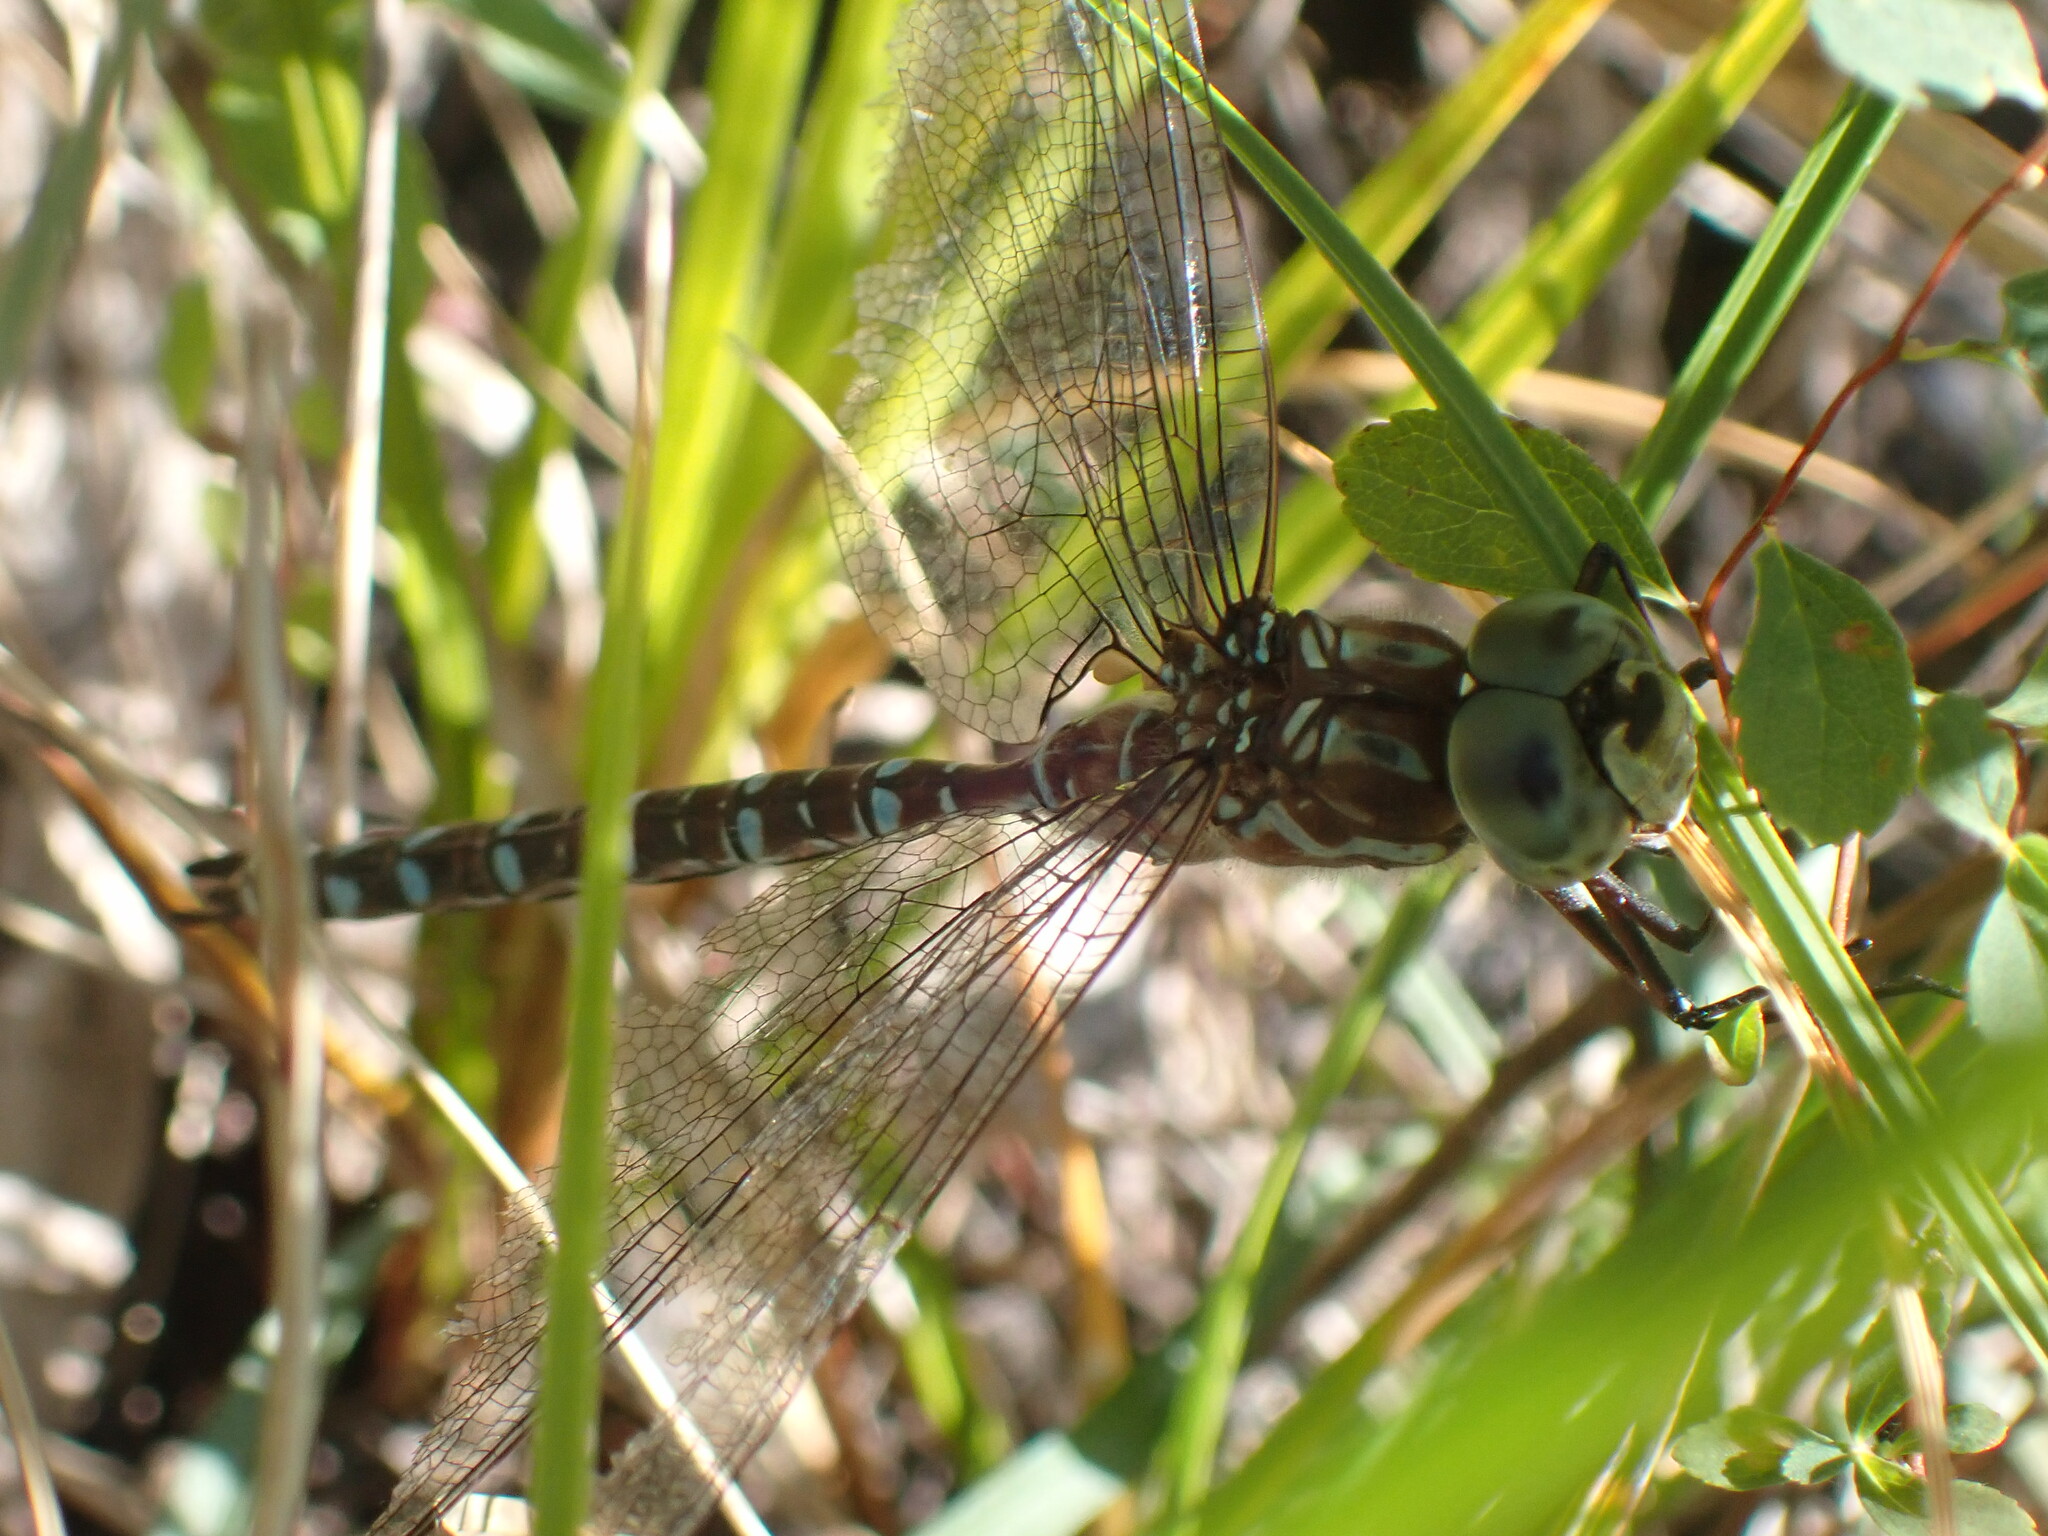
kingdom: Animalia
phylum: Arthropoda
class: Insecta
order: Odonata
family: Aeshnidae
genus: Aeshna
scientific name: Aeshna canadensis
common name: Canada darner
